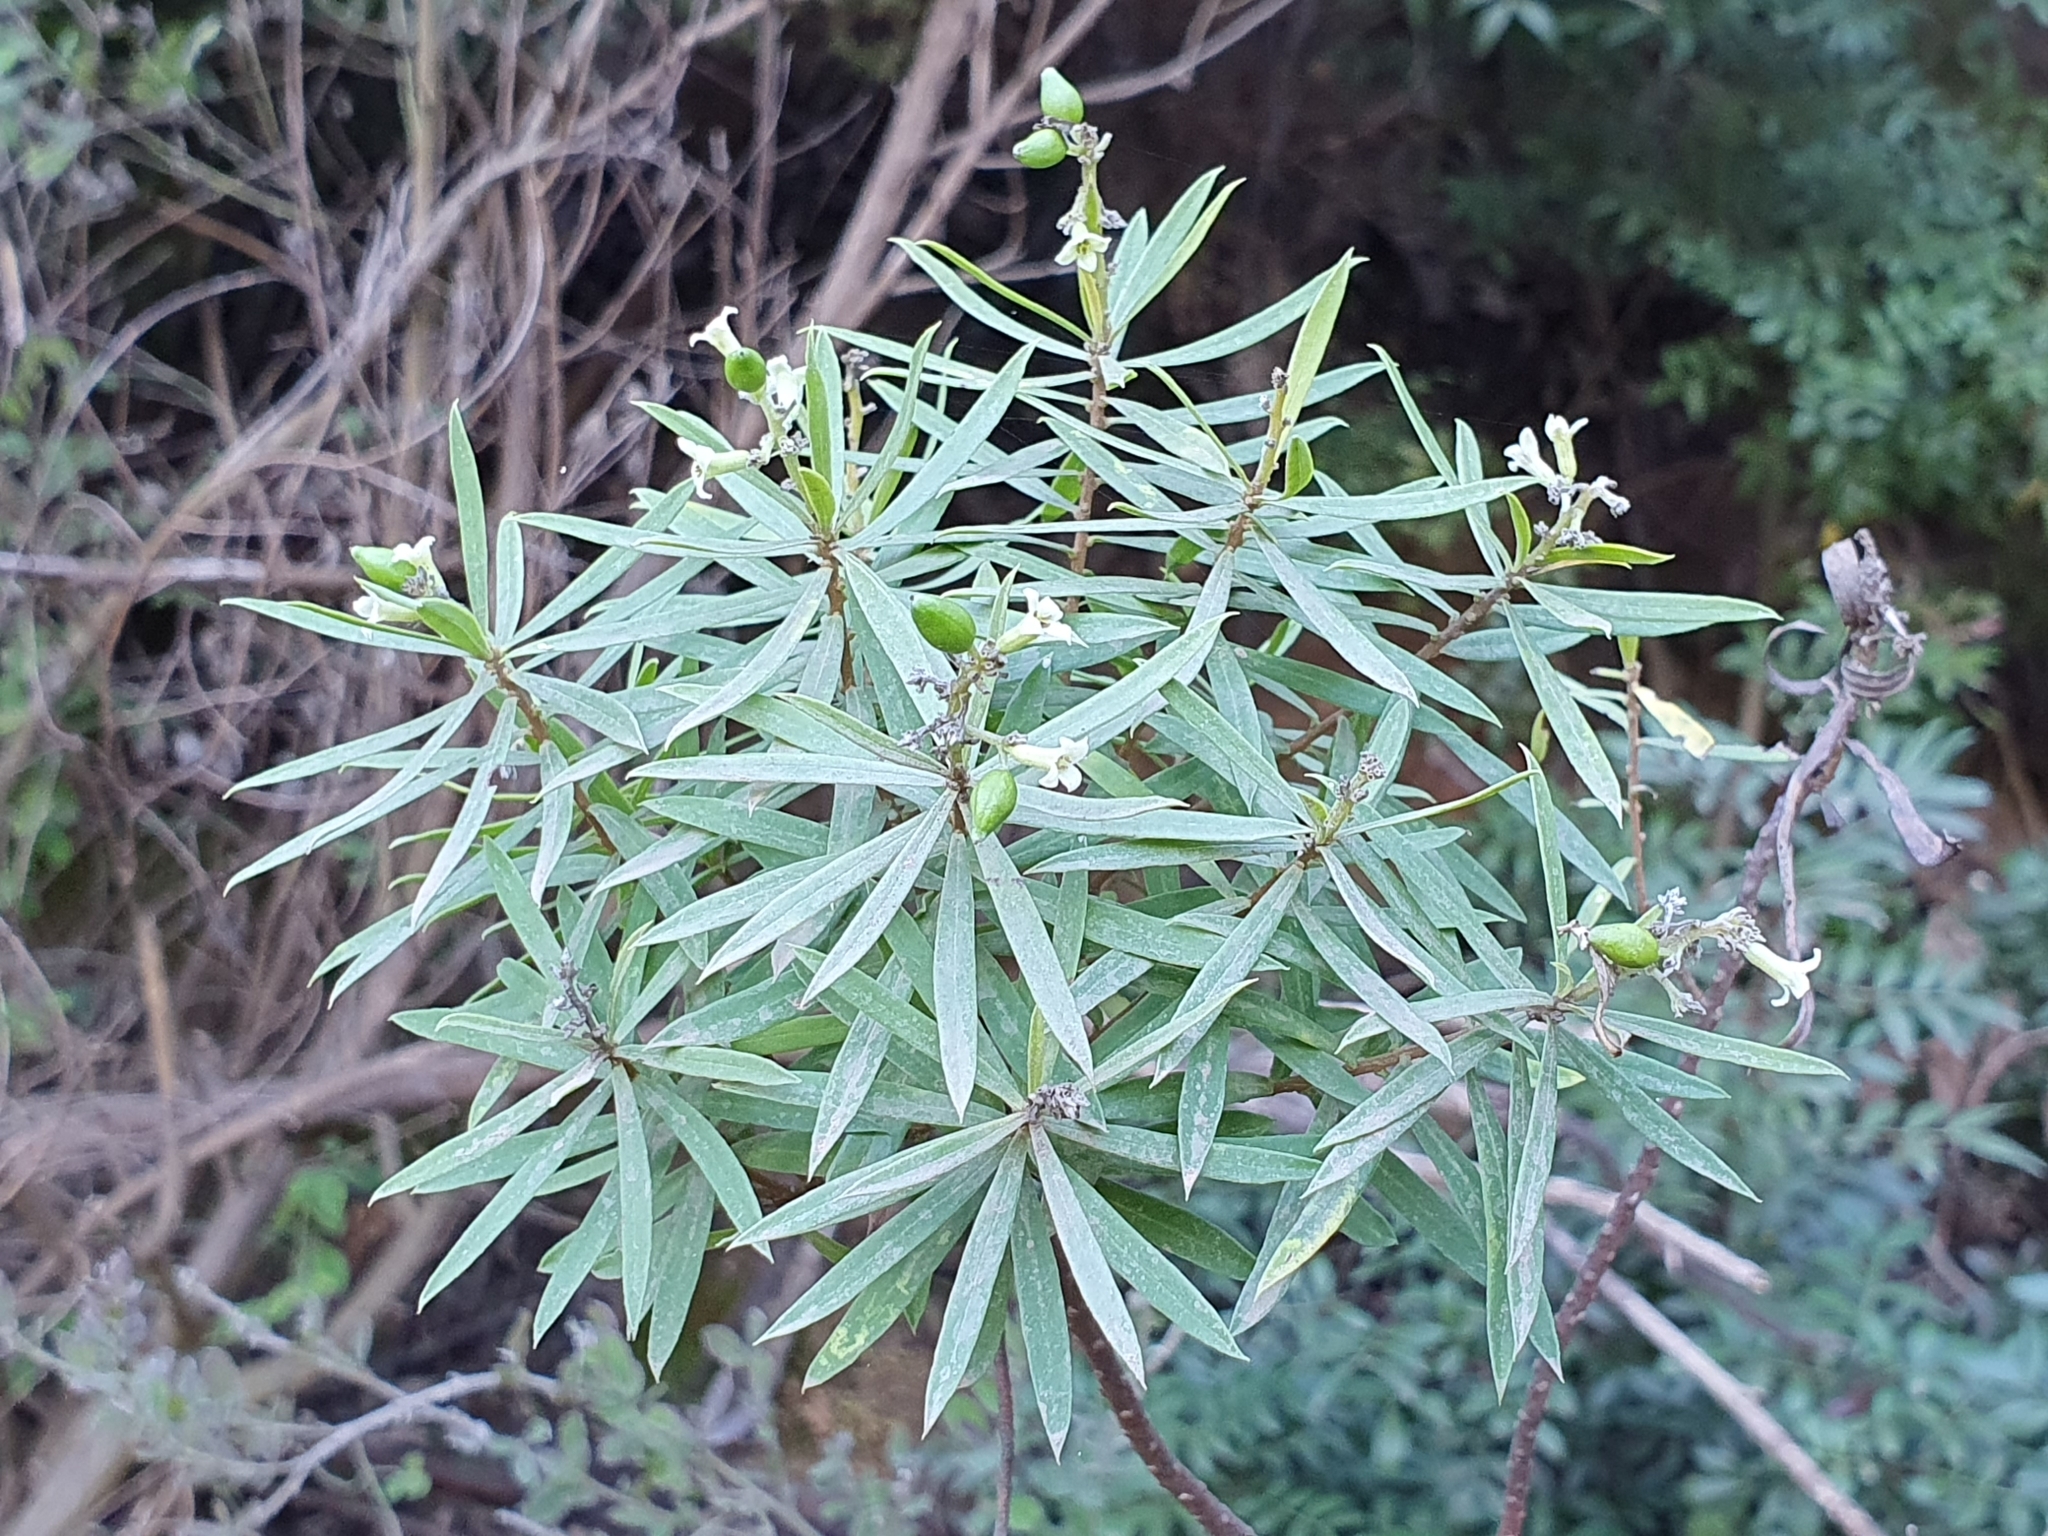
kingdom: Plantae
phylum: Tracheophyta
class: Magnoliopsida
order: Malvales
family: Thymelaeaceae
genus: Daphne
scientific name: Daphne gnidium
